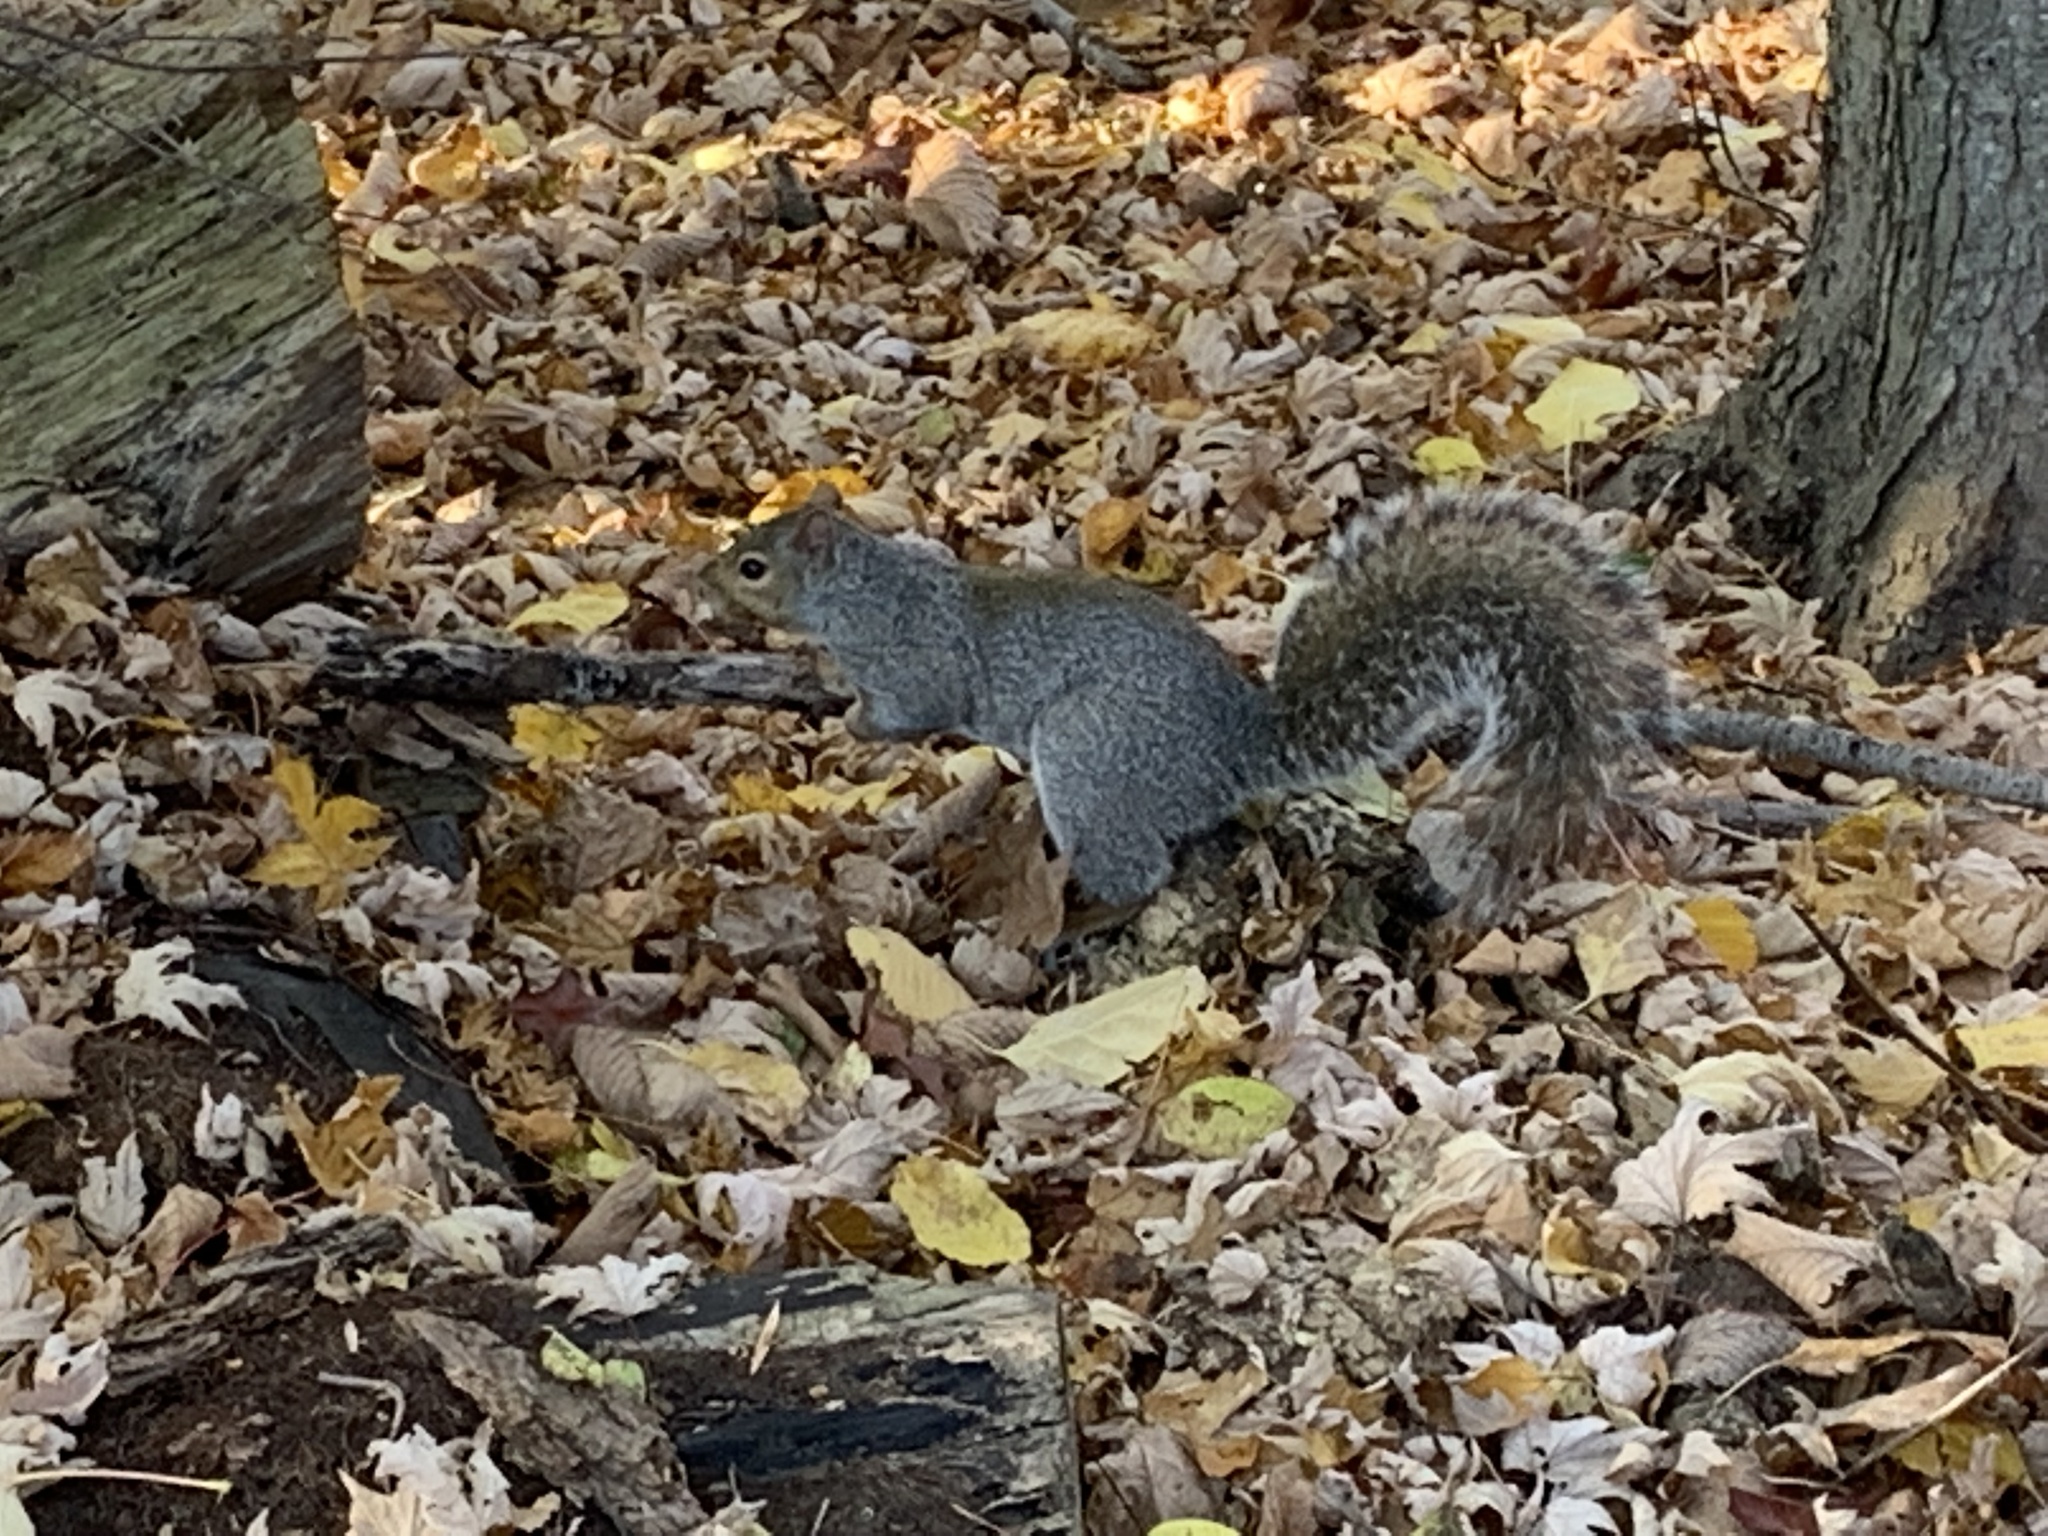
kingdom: Animalia
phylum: Chordata
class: Mammalia
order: Rodentia
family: Sciuridae
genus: Sciurus
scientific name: Sciurus carolinensis
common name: Eastern gray squirrel
